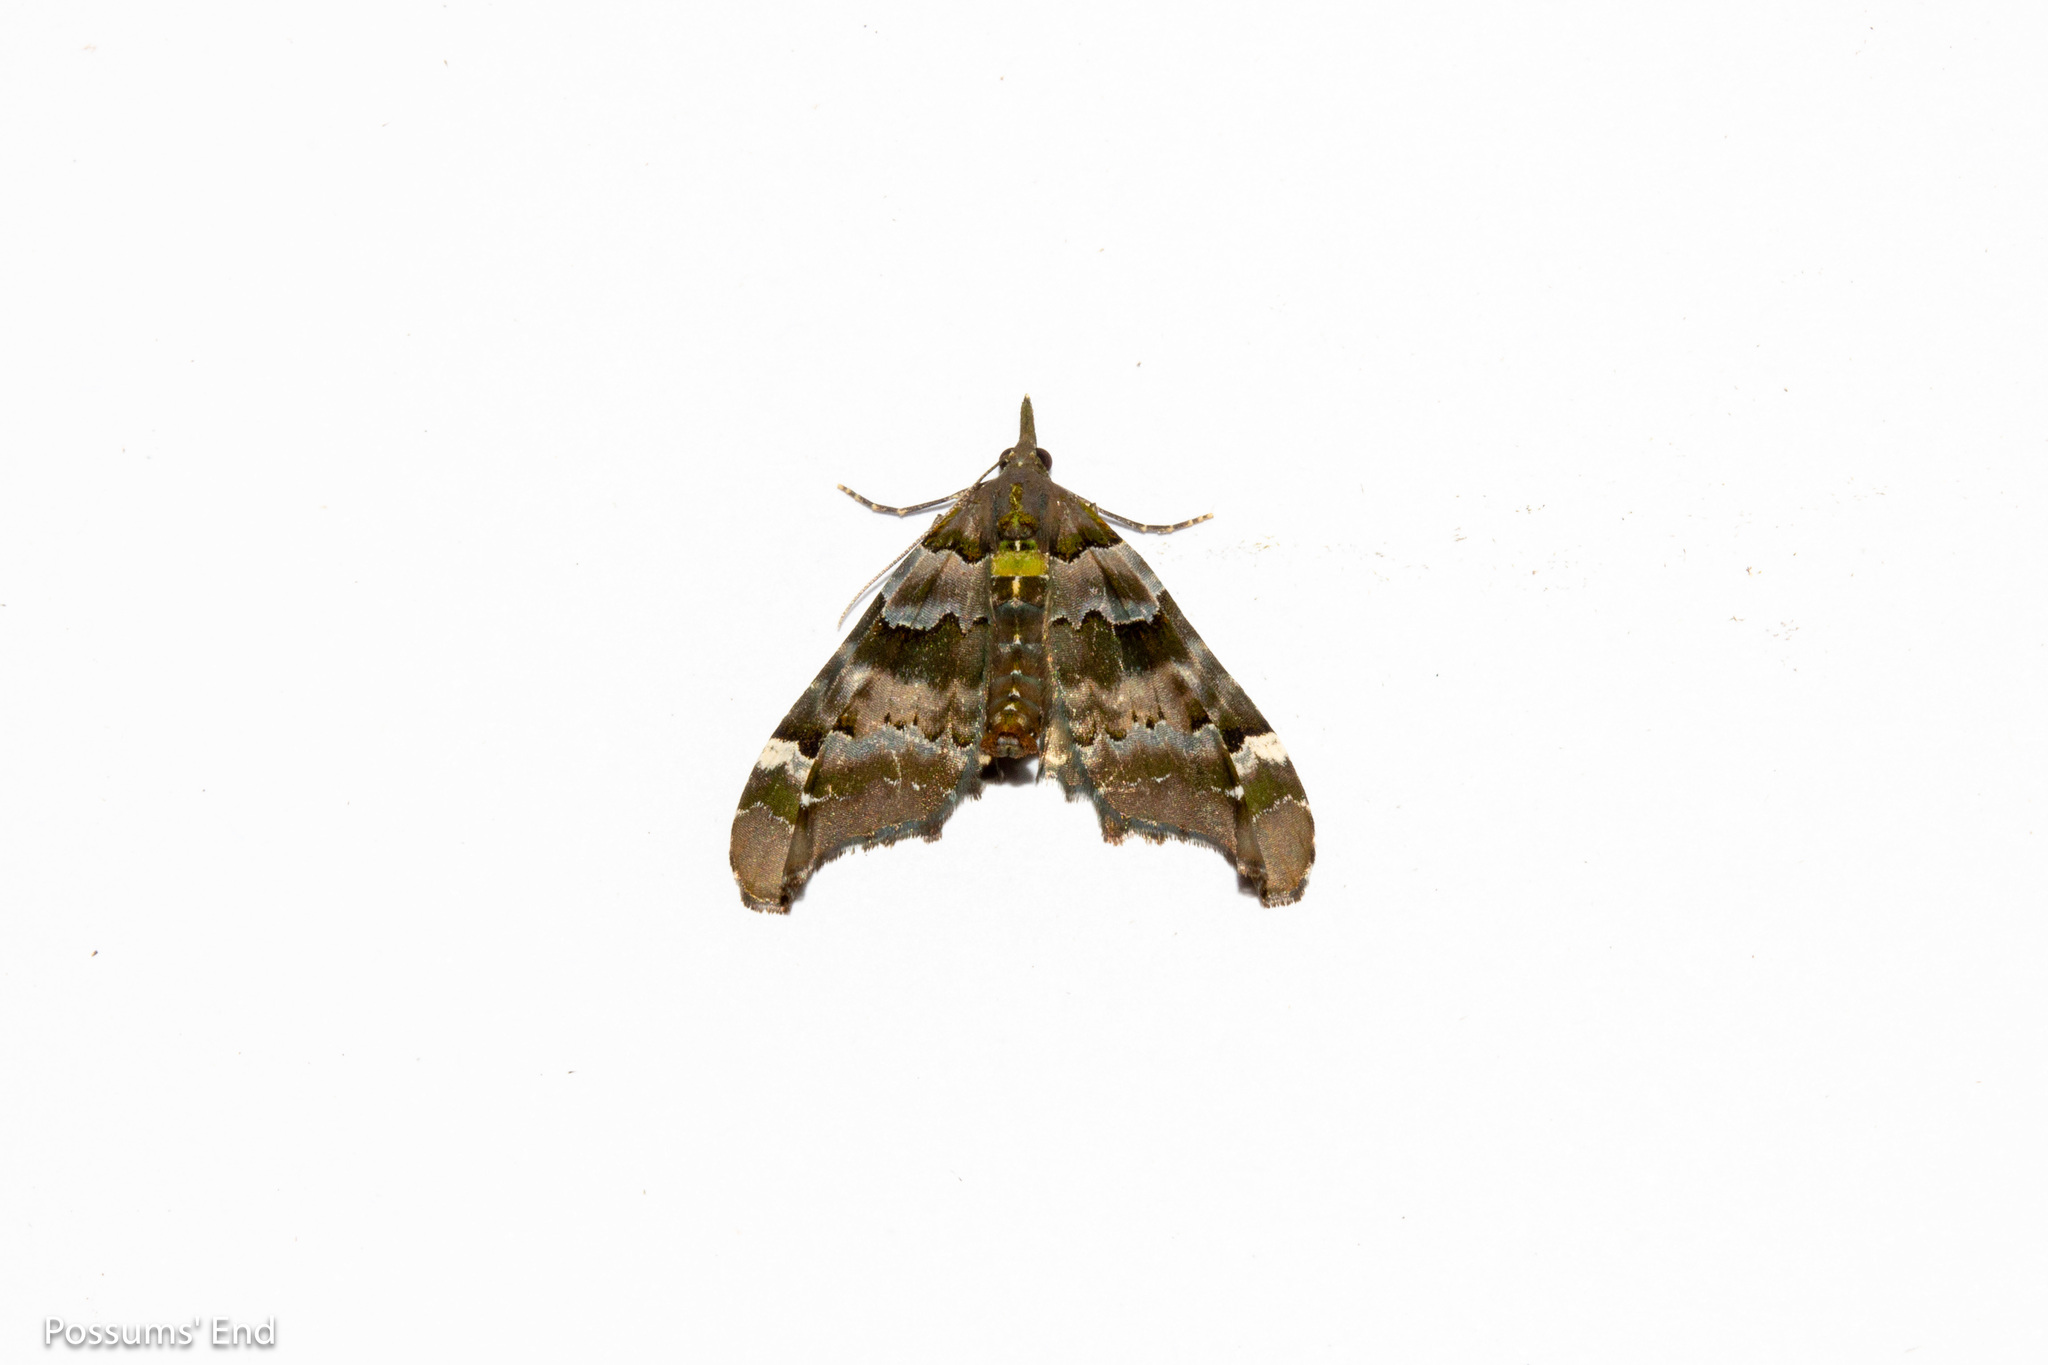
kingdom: Animalia
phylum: Arthropoda
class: Insecta
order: Lepidoptera
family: Geometridae
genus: Elvia
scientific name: Elvia glaucata
